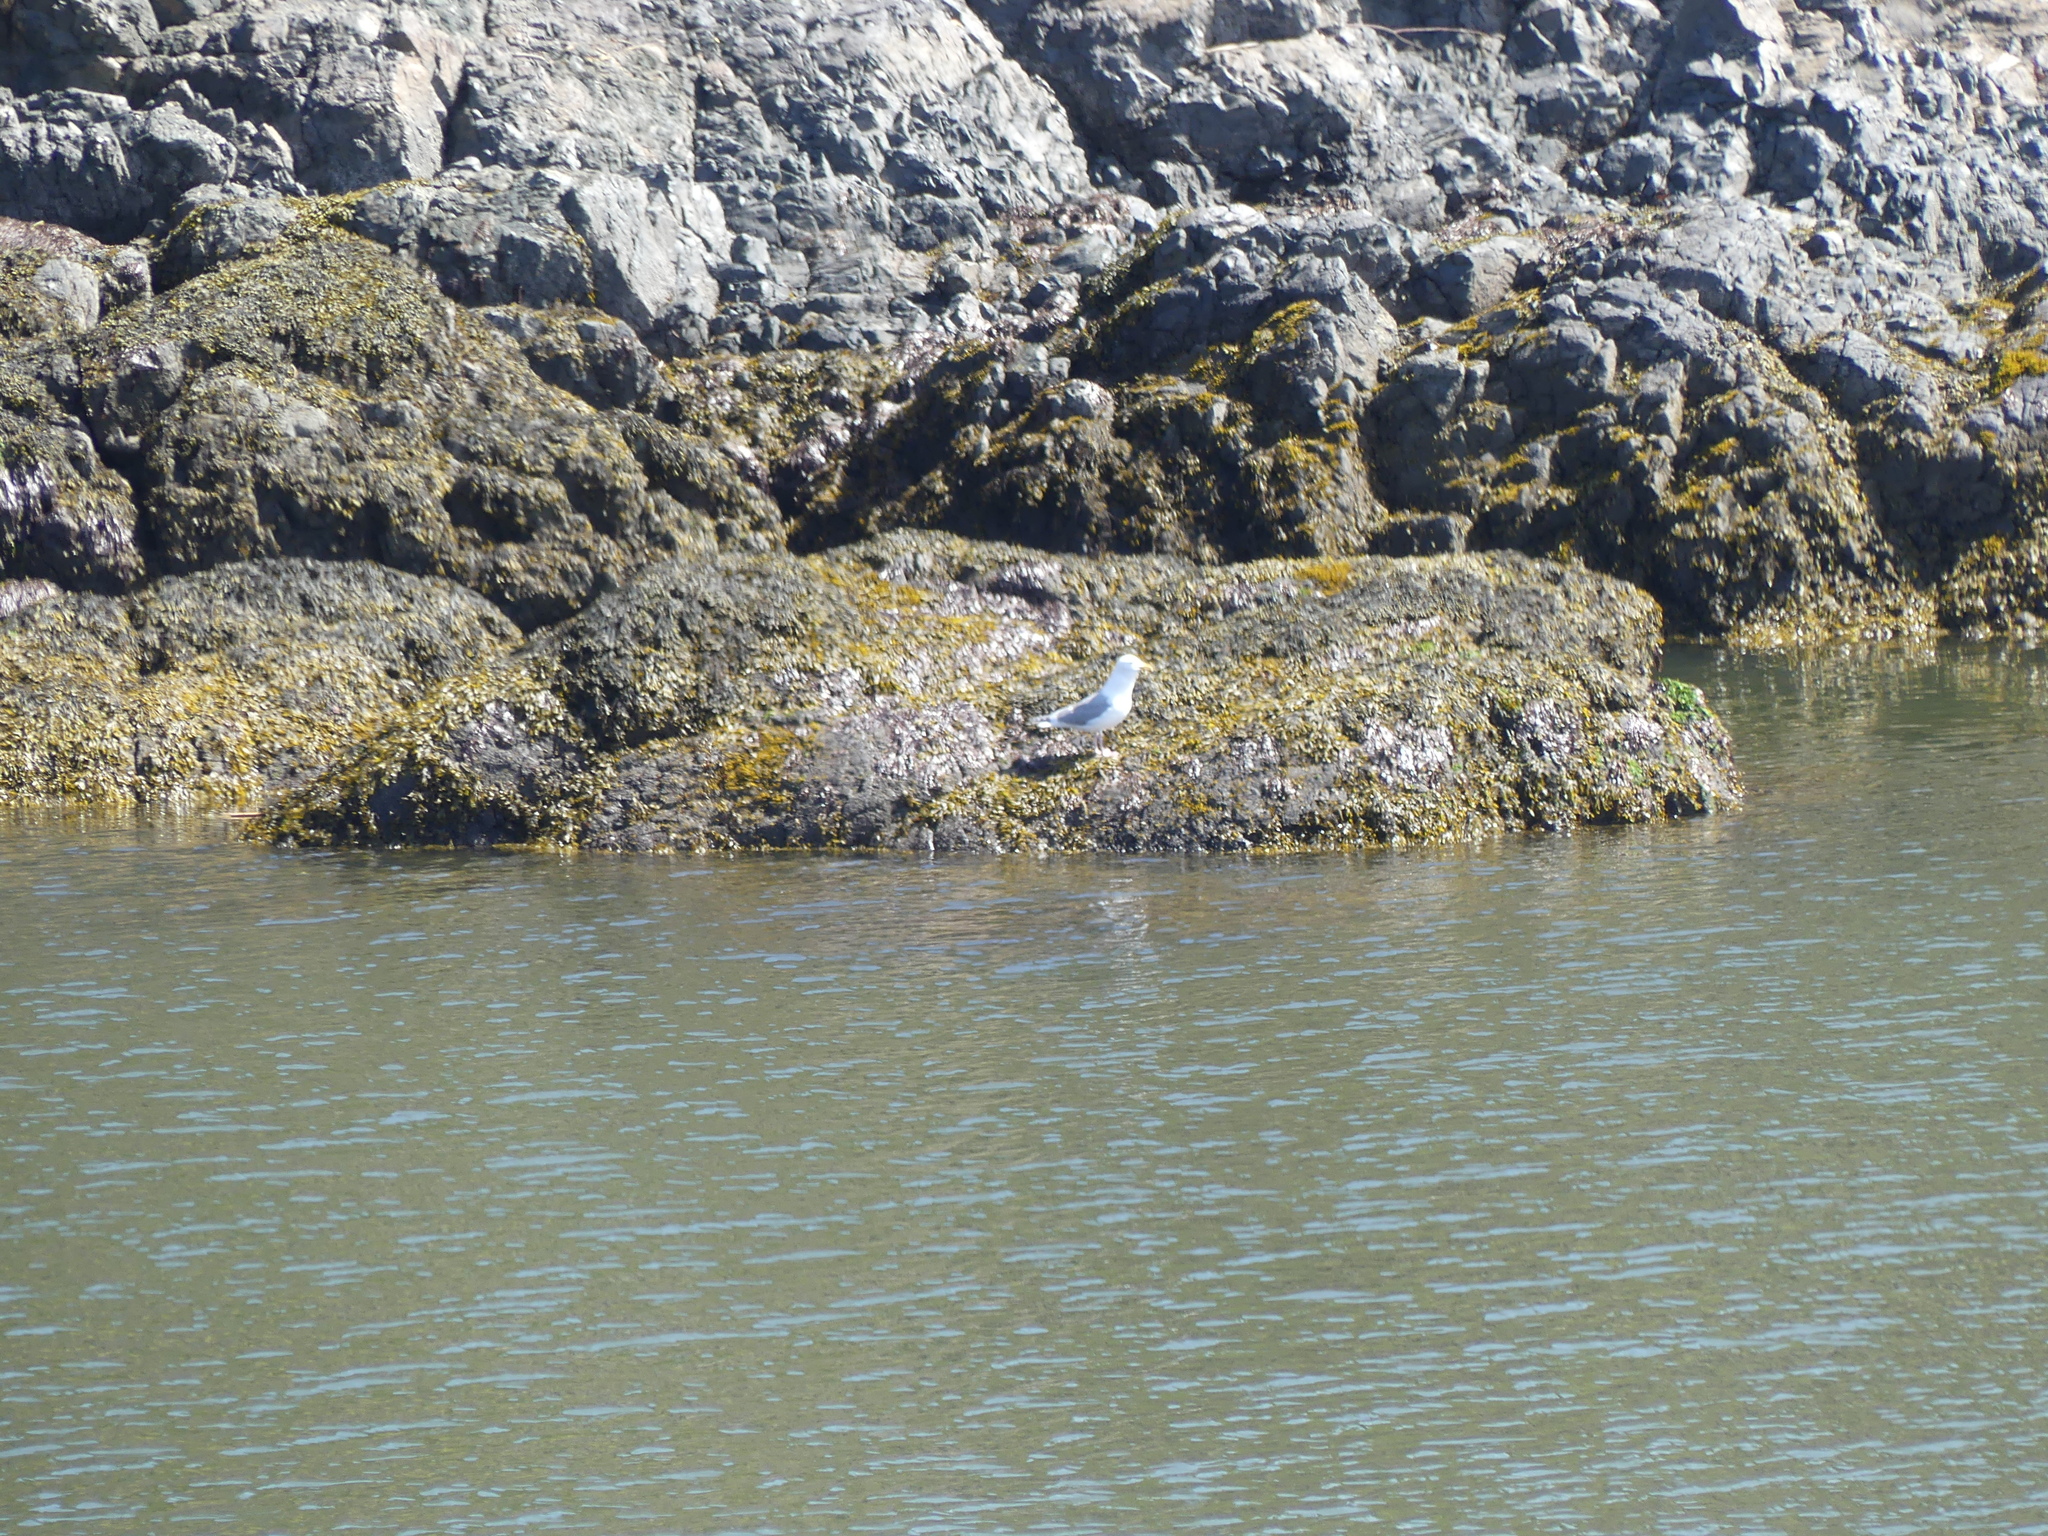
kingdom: Animalia
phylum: Chordata
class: Aves
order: Charadriiformes
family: Laridae
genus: Larus
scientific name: Larus glaucescens
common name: Glaucous-winged gull
